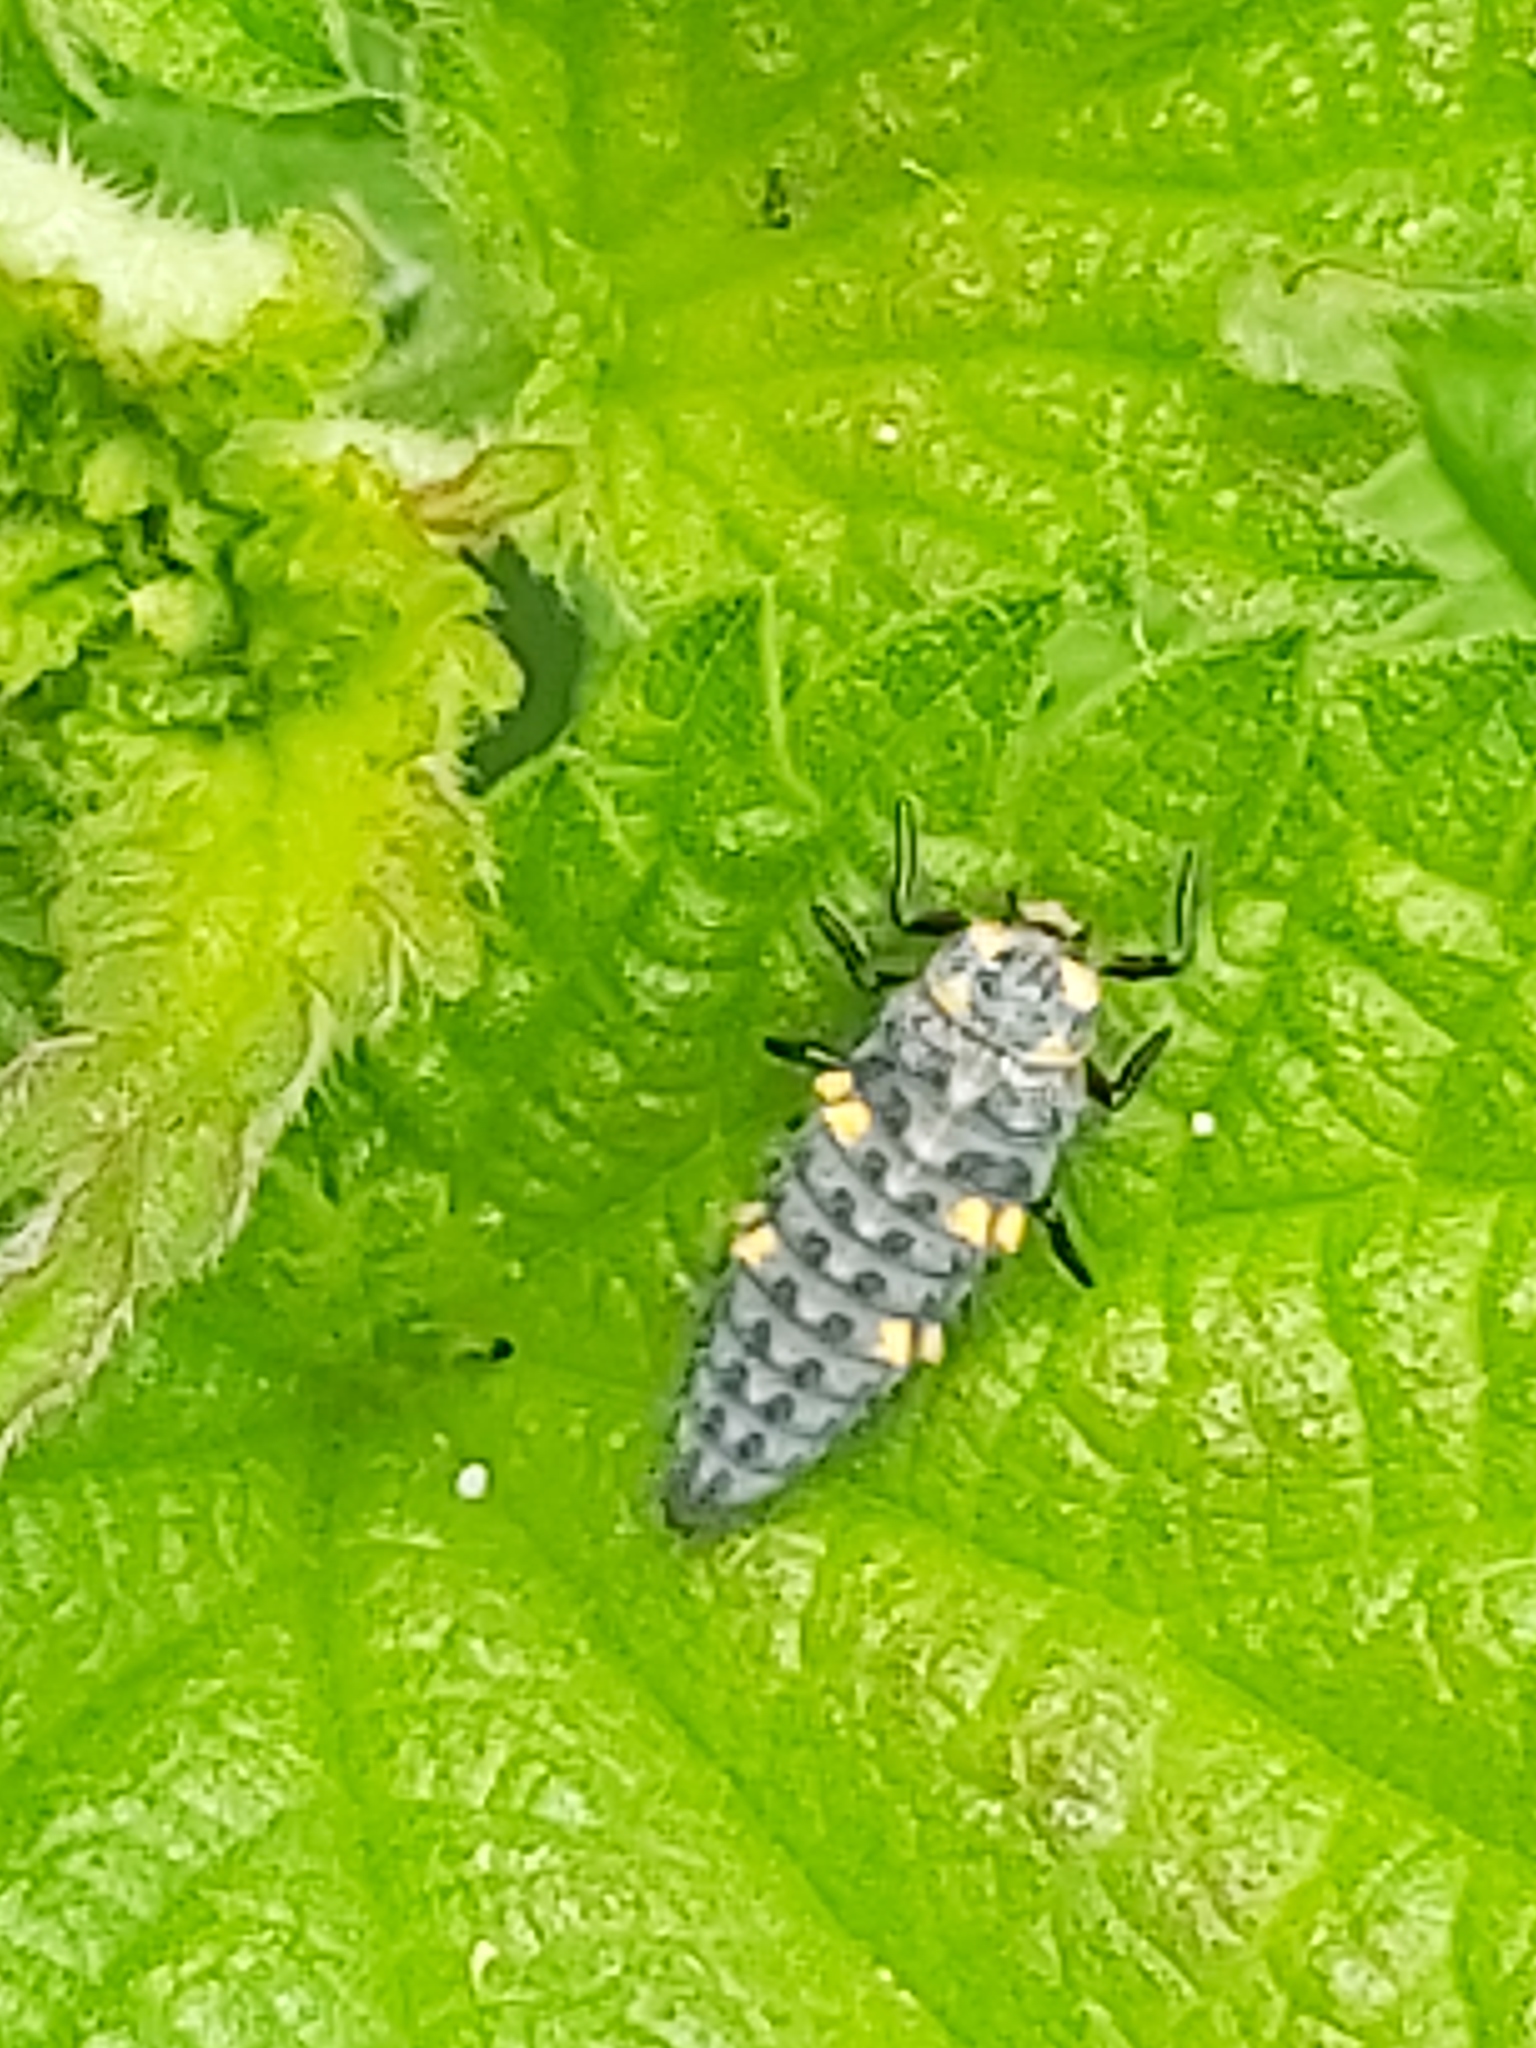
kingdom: Animalia
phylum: Arthropoda
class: Insecta
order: Coleoptera
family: Coccinellidae
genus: Coccinella
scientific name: Coccinella septempunctata
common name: Sevenspotted lady beetle
